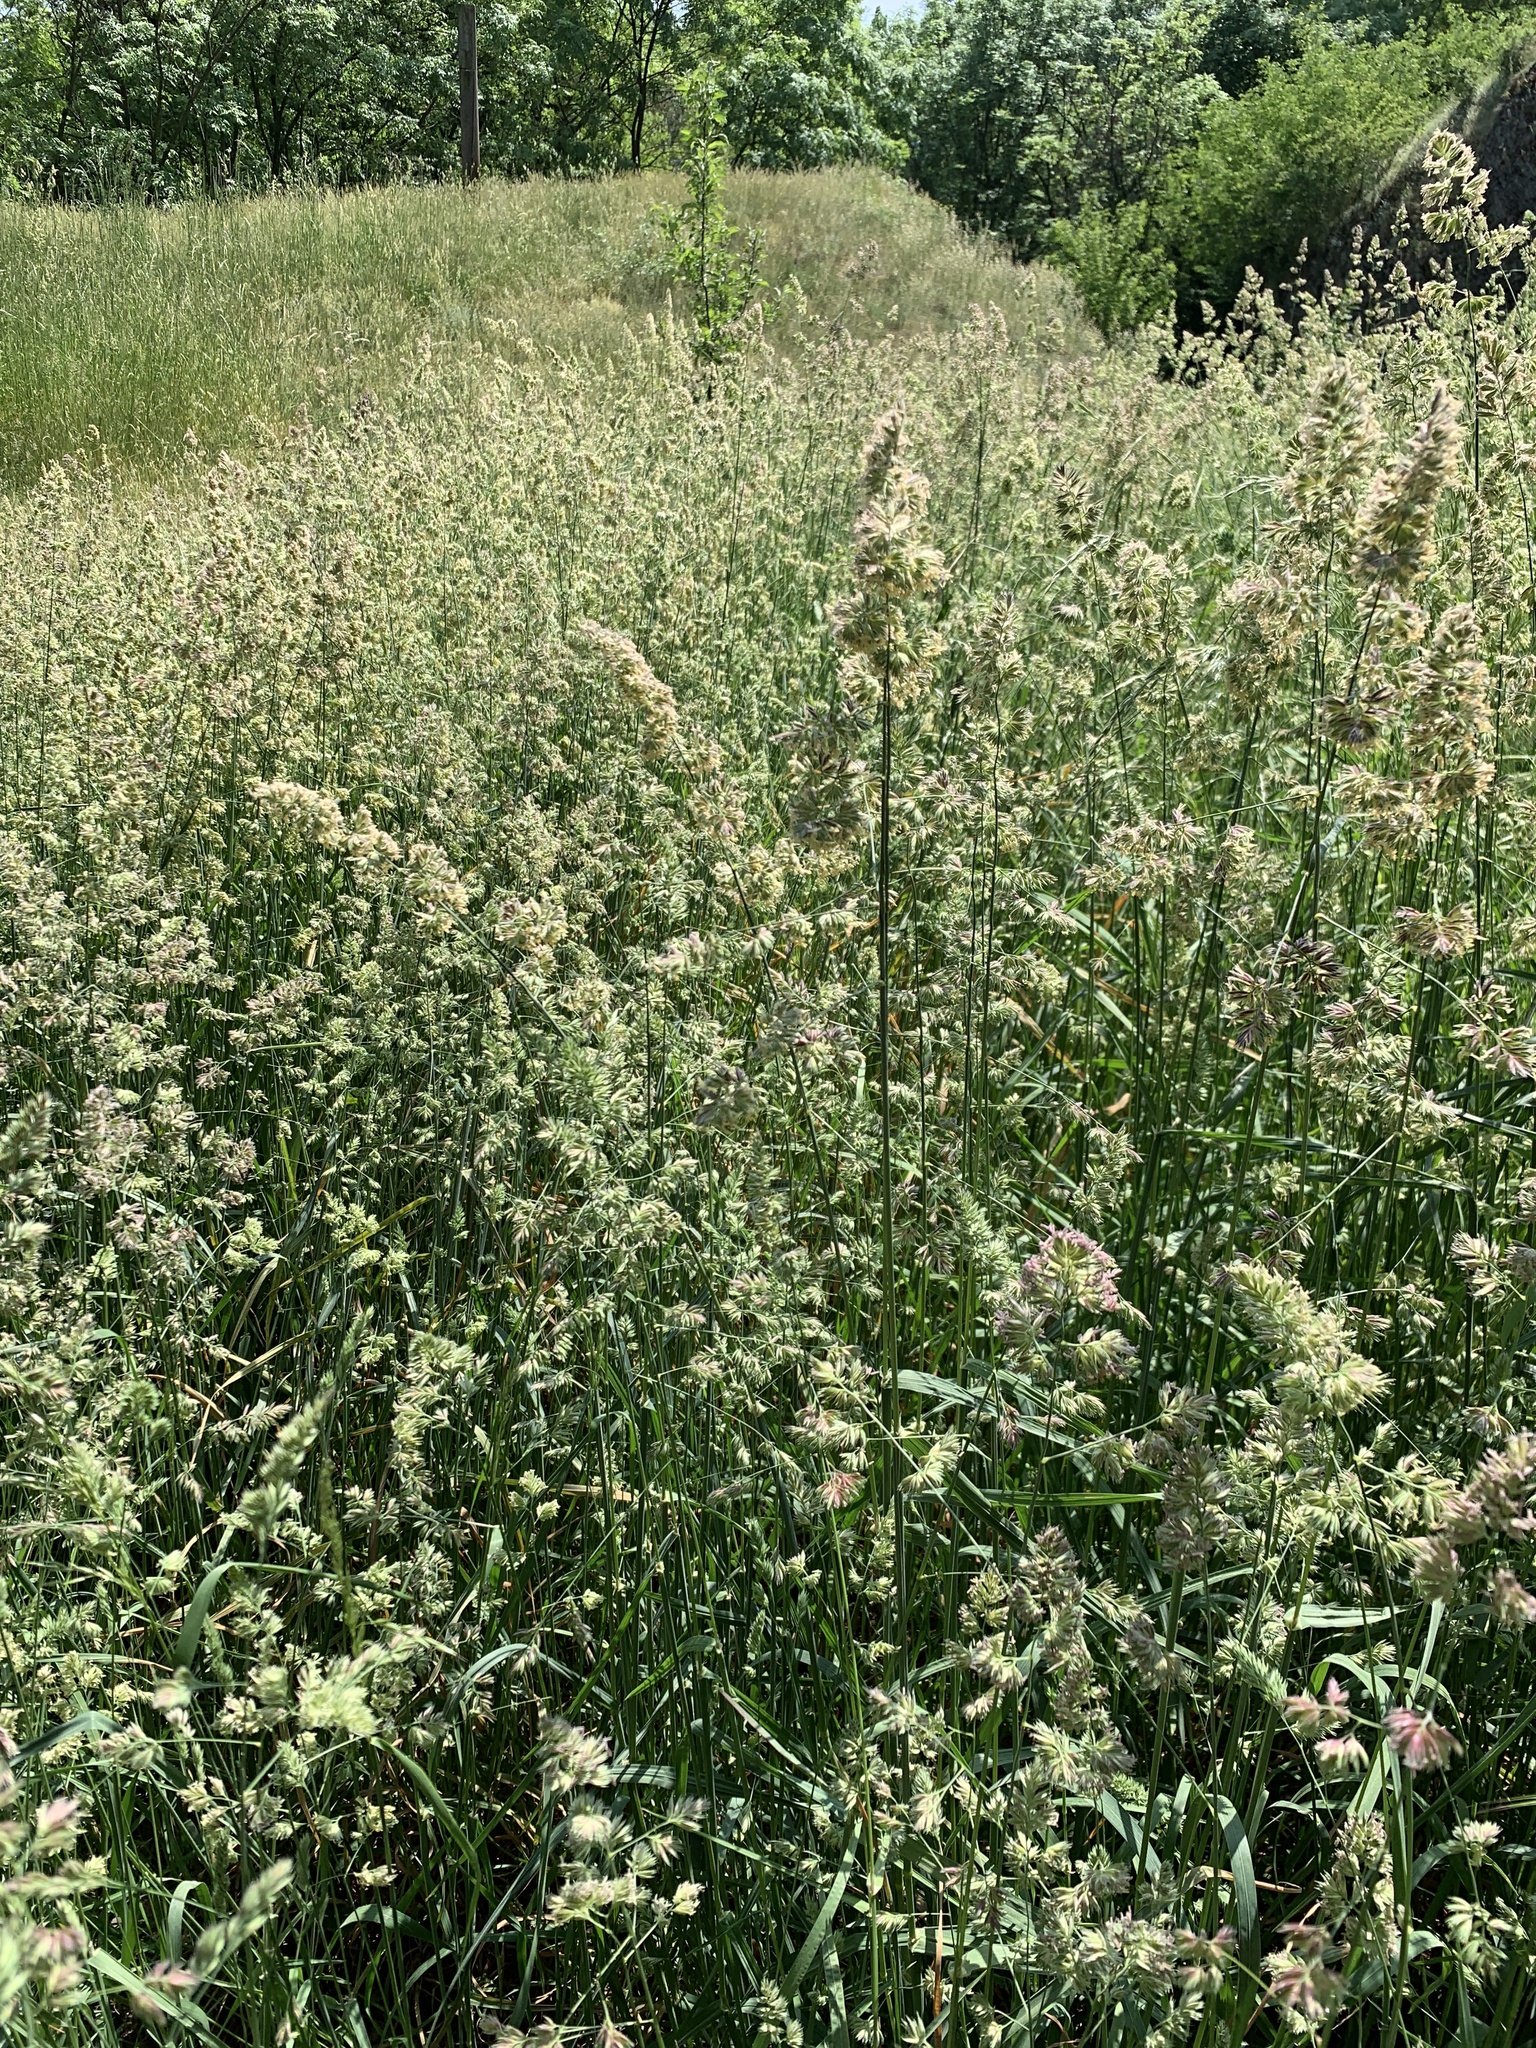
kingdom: Plantae
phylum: Tracheophyta
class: Liliopsida
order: Poales
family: Poaceae
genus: Dactylis
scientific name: Dactylis glomerata
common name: Orchardgrass
